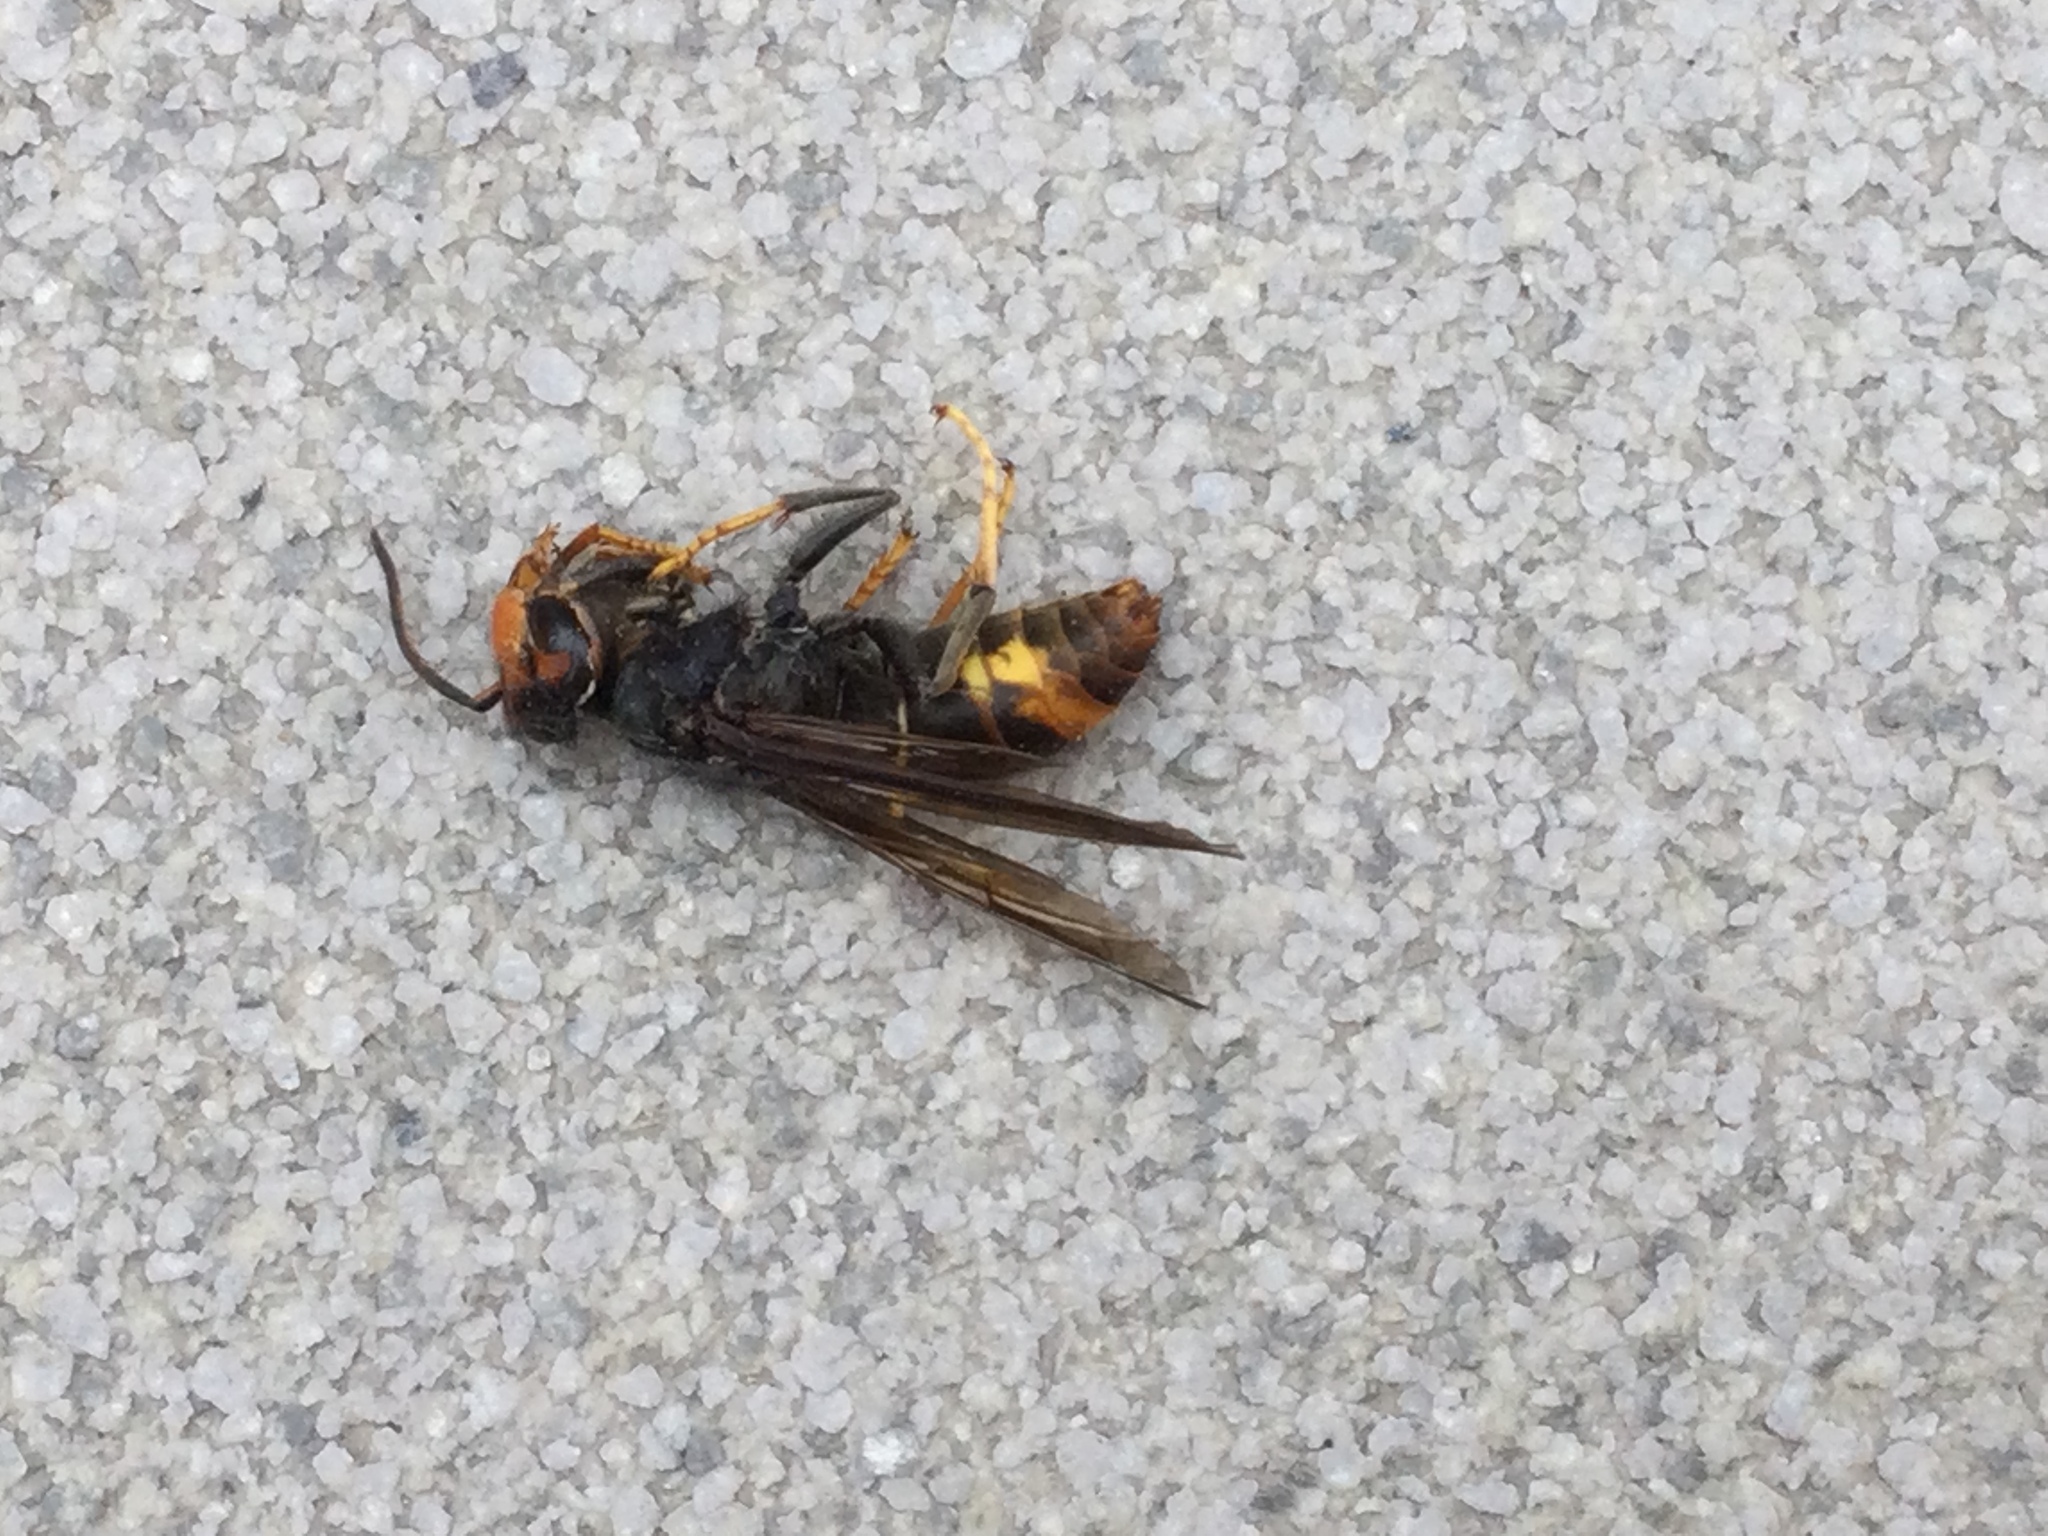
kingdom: Animalia
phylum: Arthropoda
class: Insecta
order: Hymenoptera
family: Vespidae
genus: Vespa
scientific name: Vespa velutina
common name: Asian hornet
